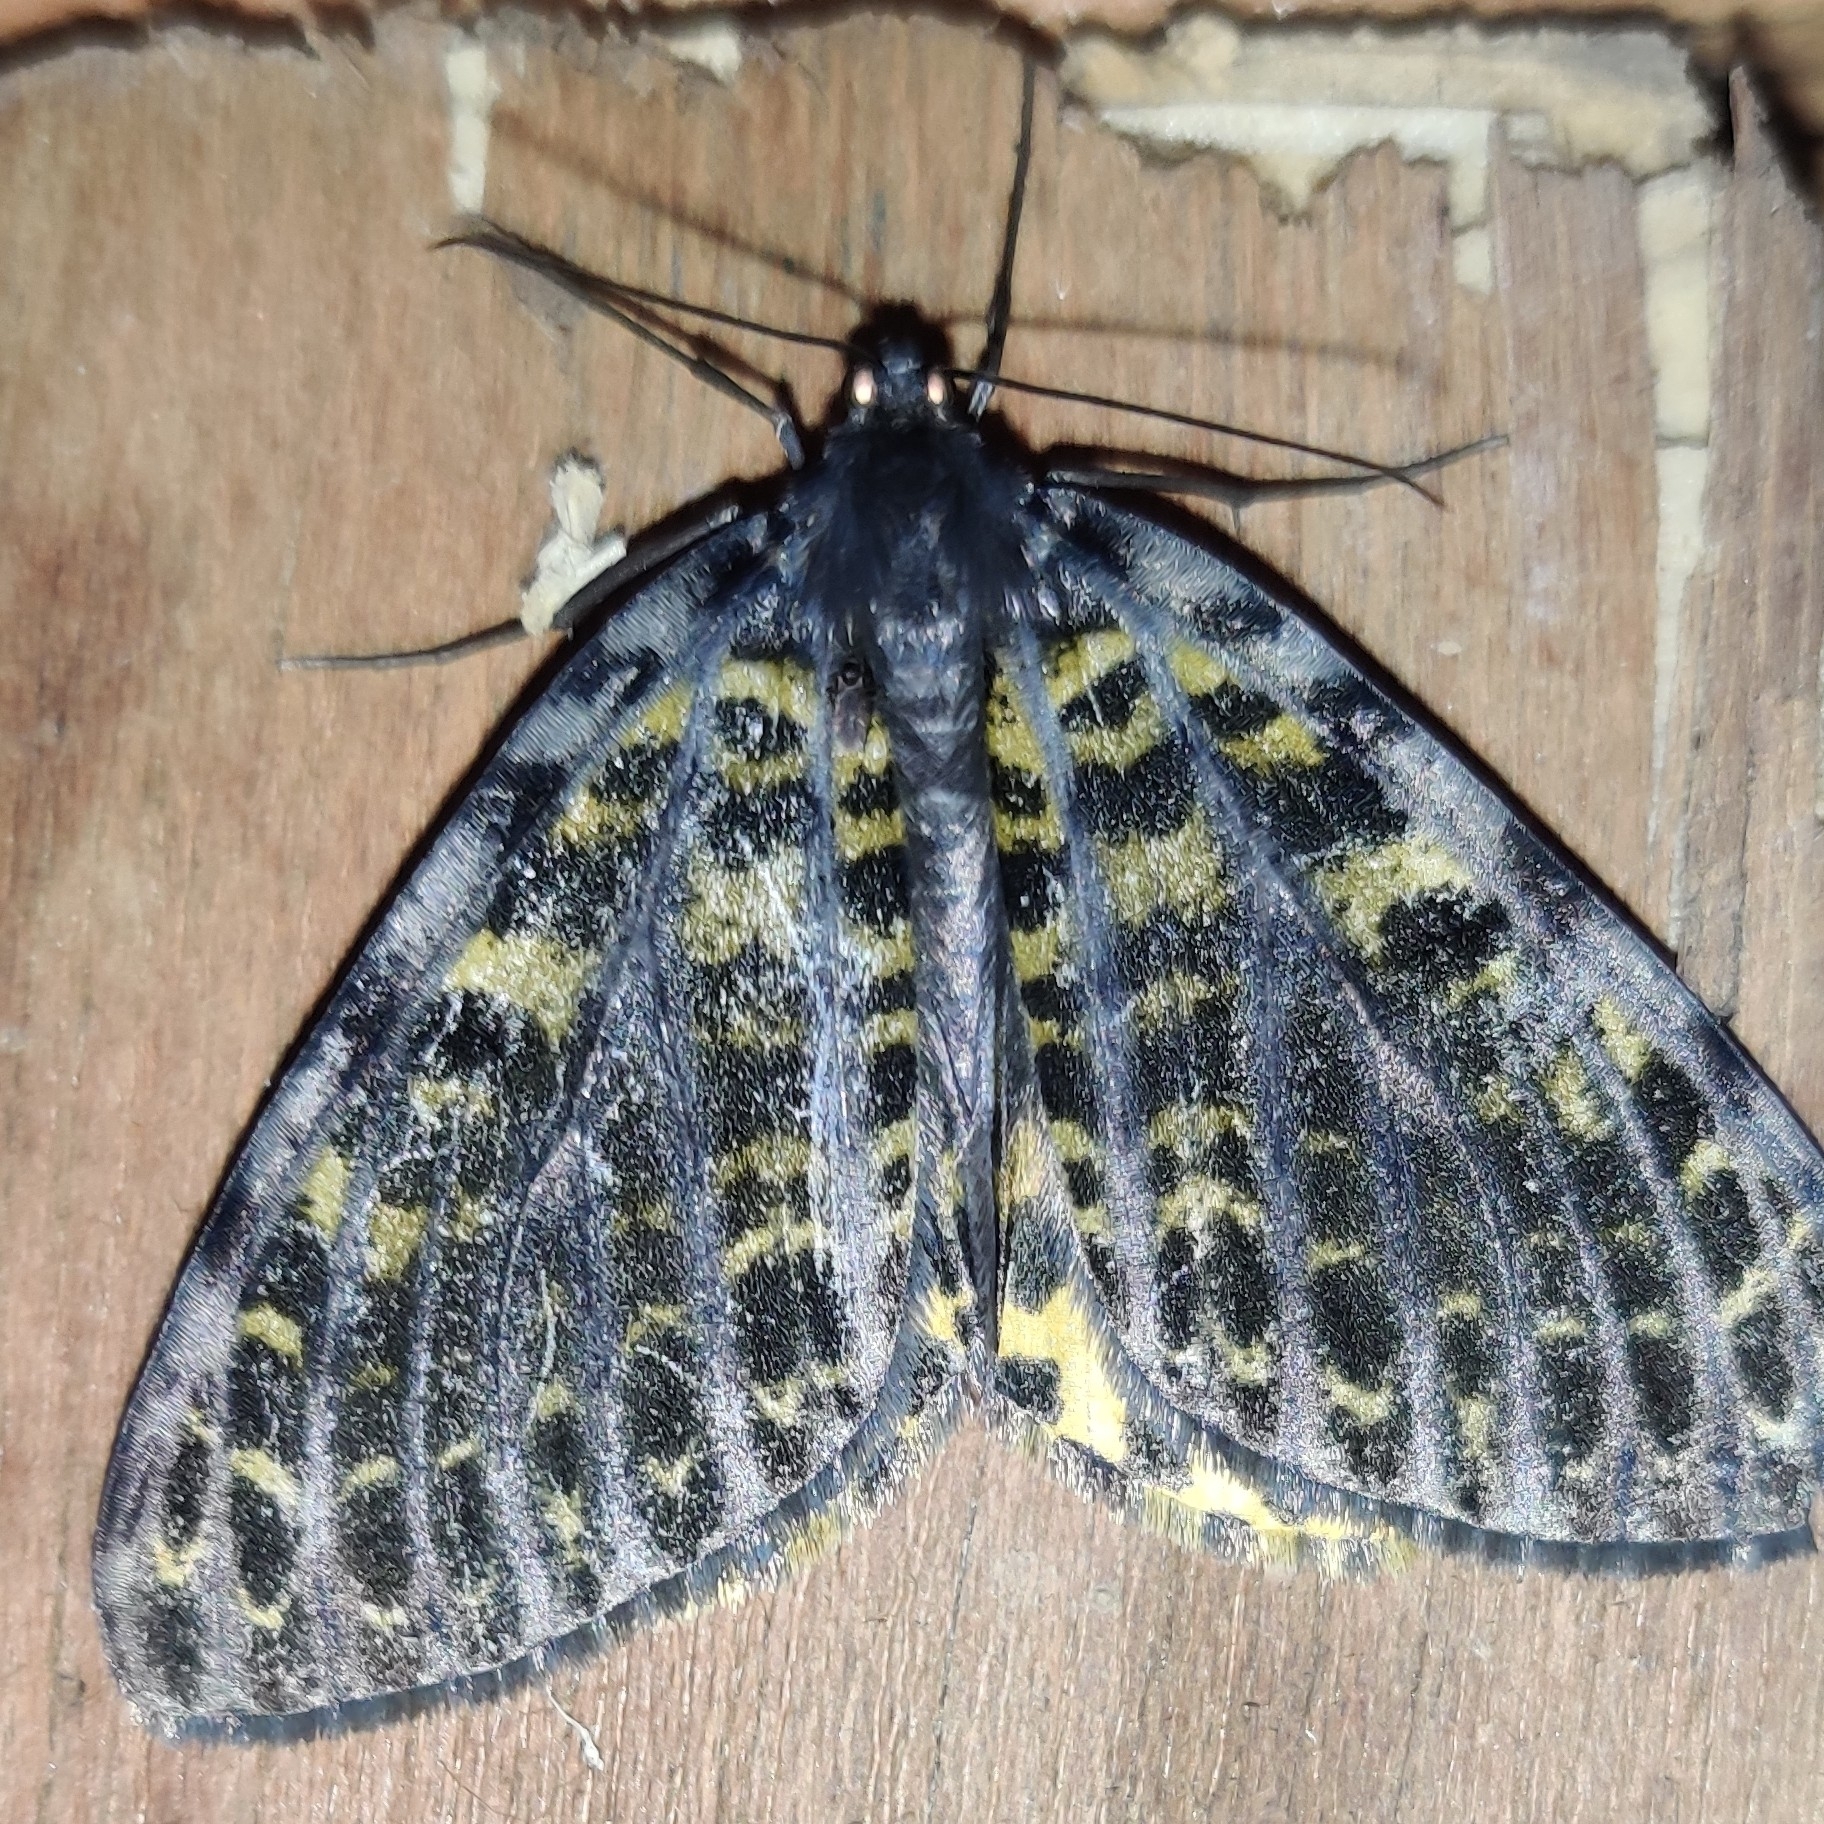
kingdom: Animalia
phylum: Arthropoda
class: Insecta
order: Lepidoptera
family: Geometridae
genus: Arichanna
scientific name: Arichanna flavinigra
